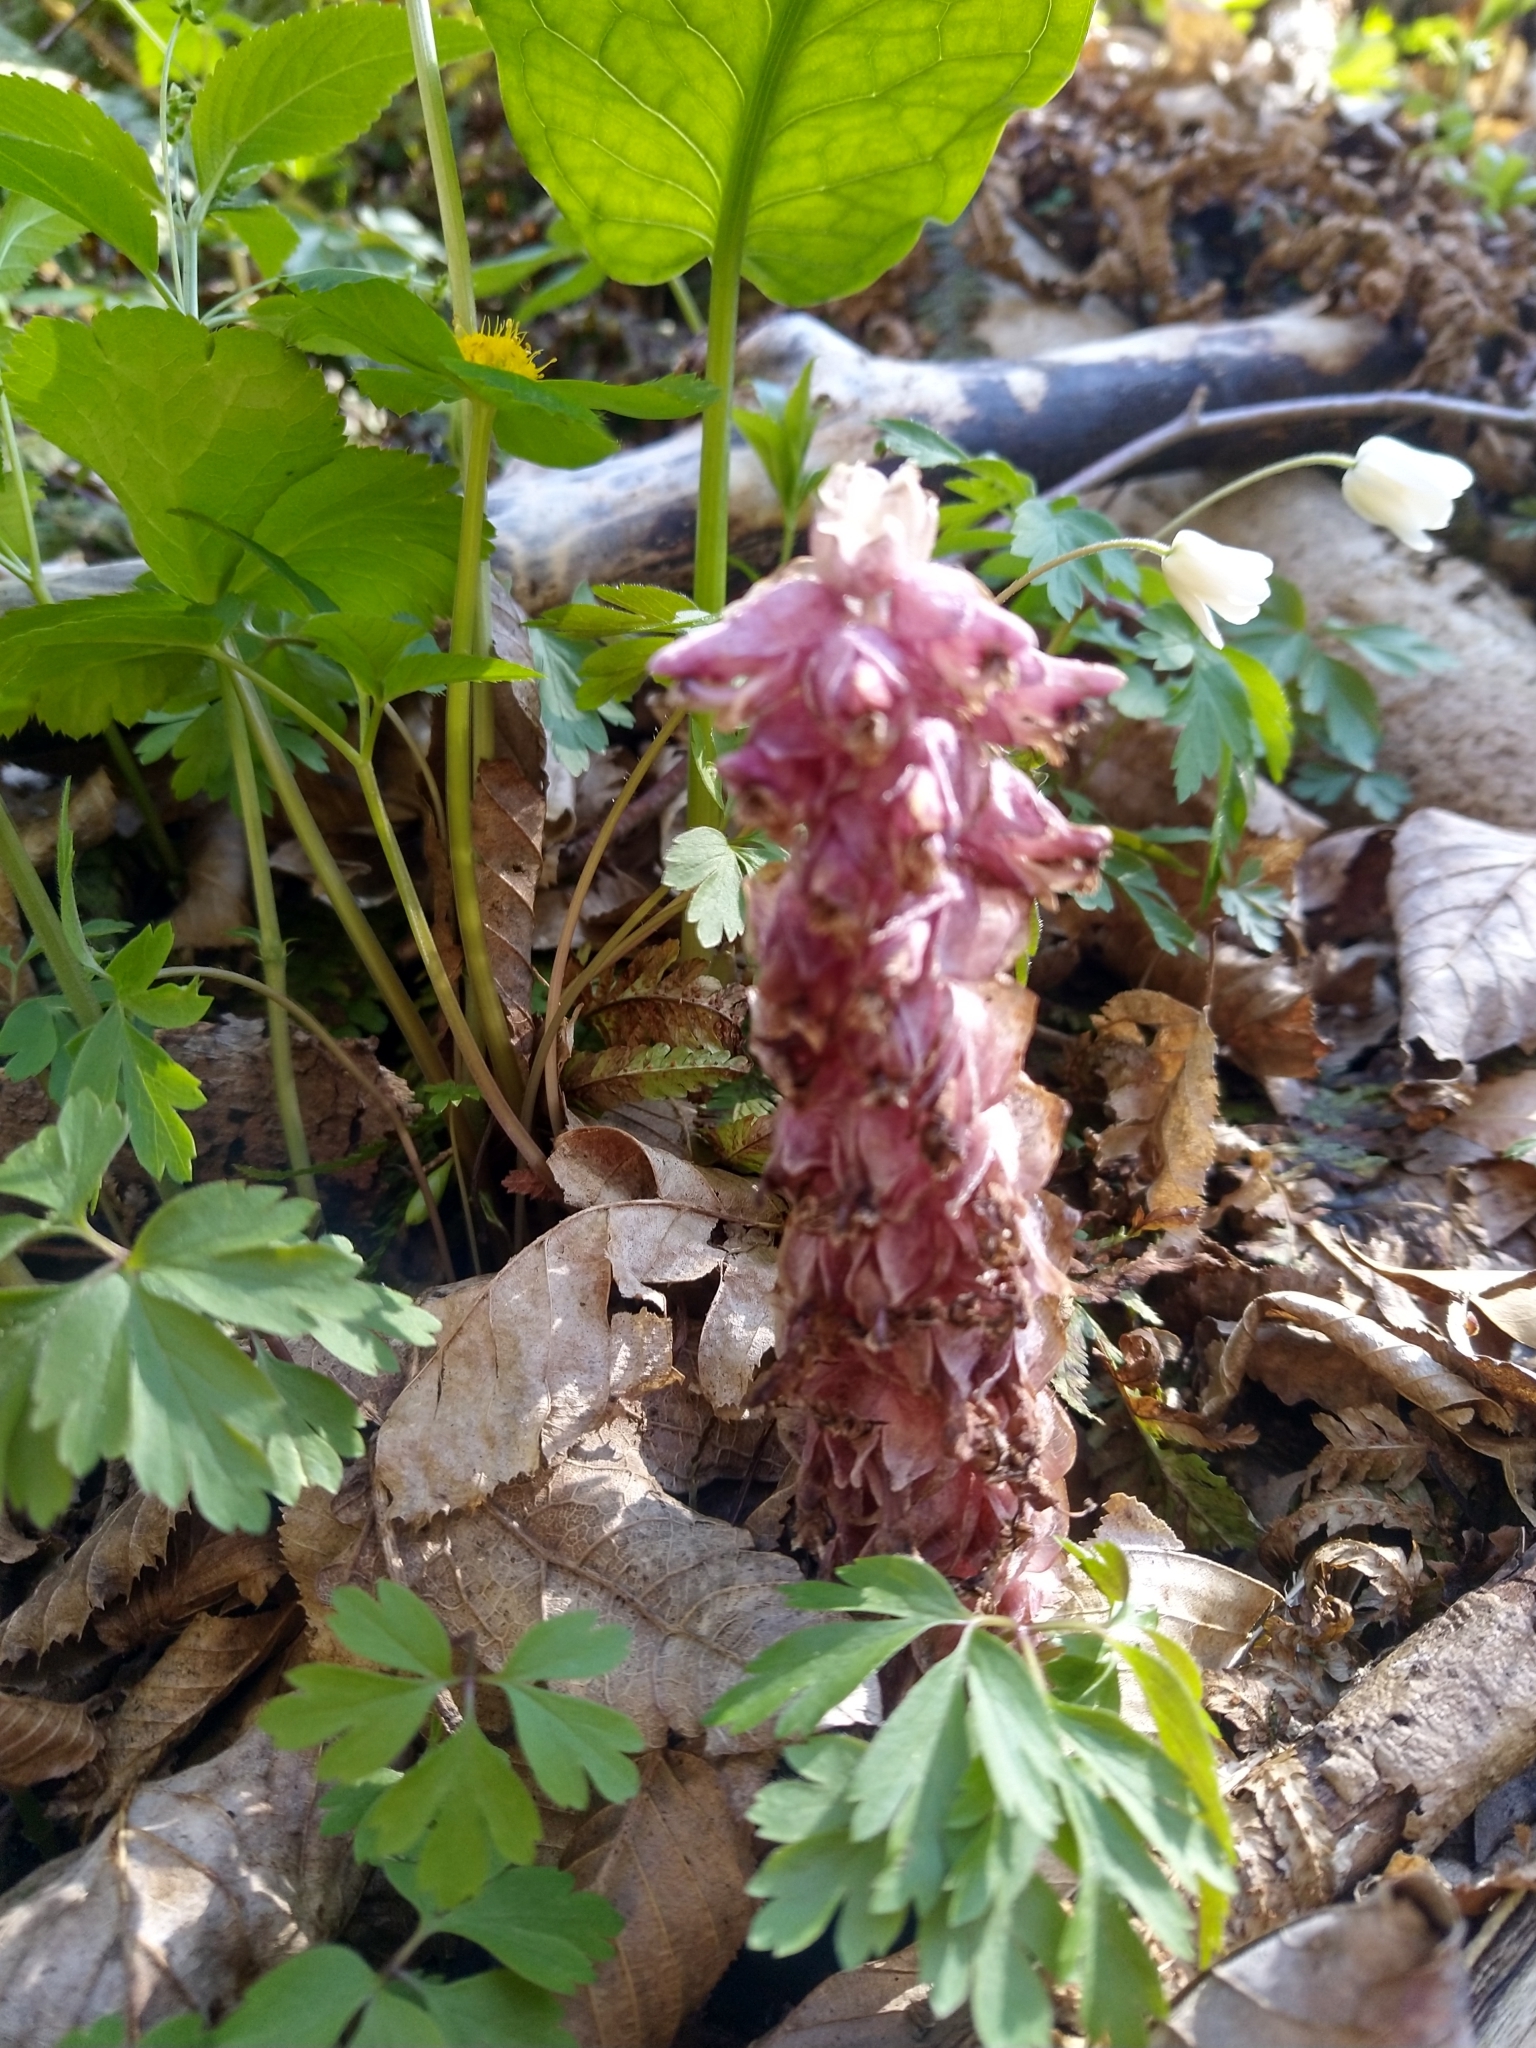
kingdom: Plantae
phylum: Tracheophyta
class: Magnoliopsida
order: Lamiales
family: Orobanchaceae
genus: Lathraea
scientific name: Lathraea squamaria
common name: Toothwort
